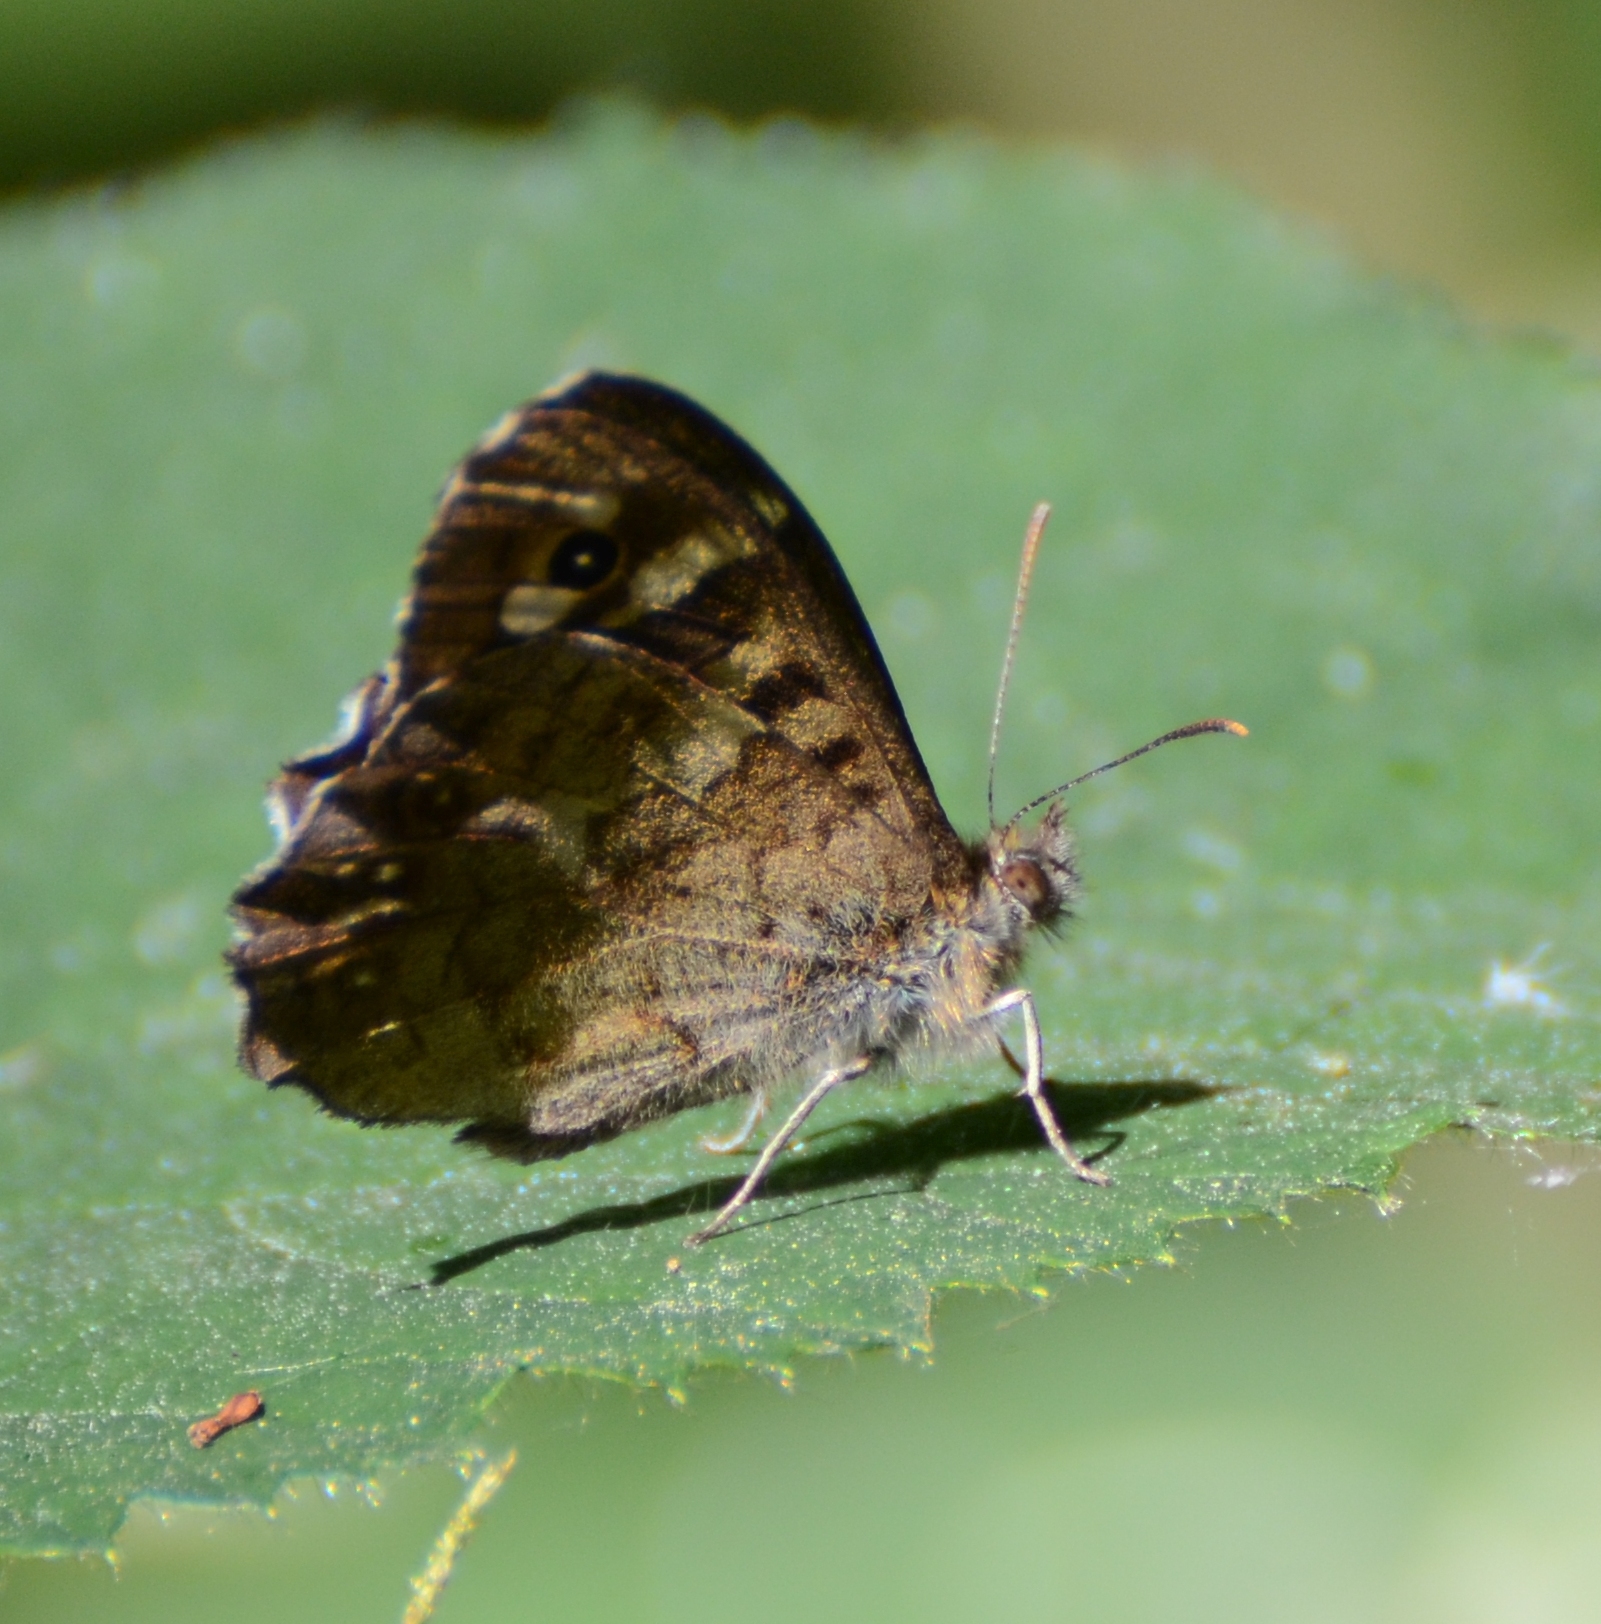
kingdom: Animalia
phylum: Arthropoda
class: Insecta
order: Lepidoptera
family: Nymphalidae
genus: Pararge
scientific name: Pararge aegeria
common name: Speckled wood
